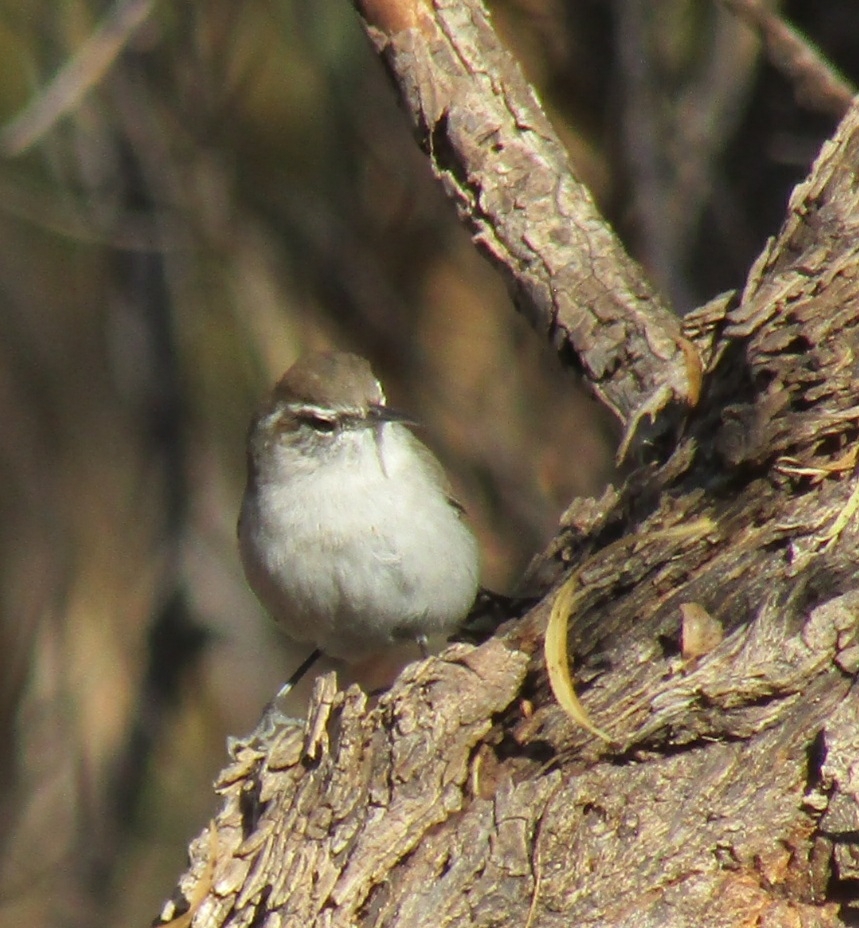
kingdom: Animalia
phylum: Chordata
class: Aves
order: Passeriformes
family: Troglodytidae
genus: Thryomanes
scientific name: Thryomanes bewickii
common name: Bewick's wren
